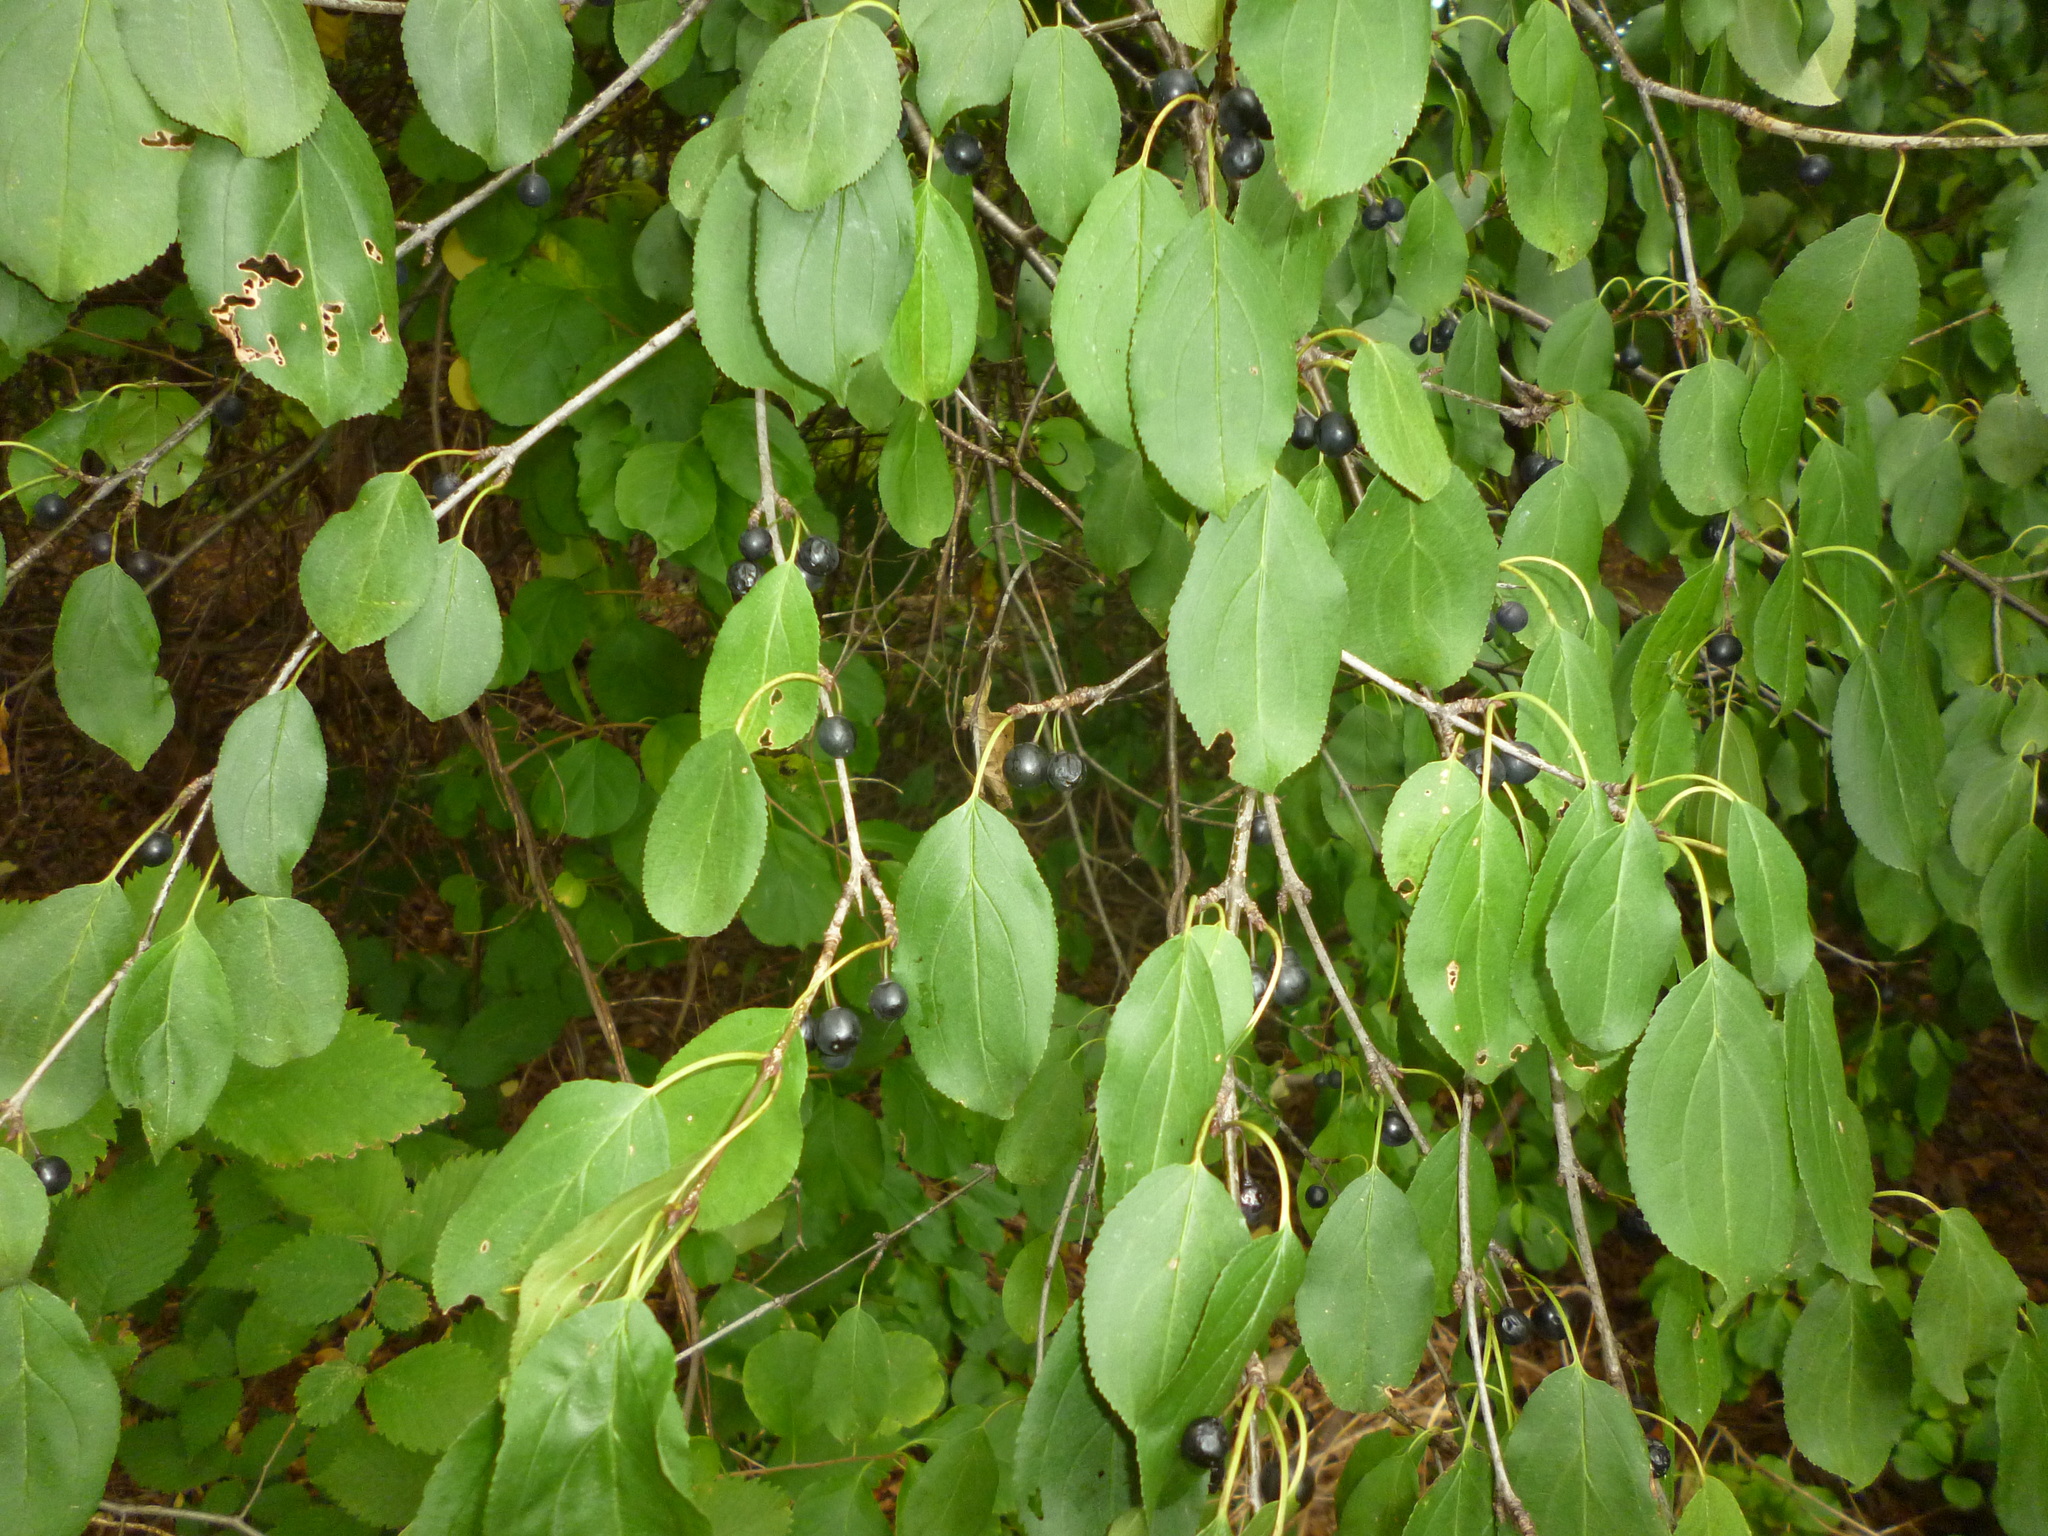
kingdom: Plantae
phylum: Tracheophyta
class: Magnoliopsida
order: Rosales
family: Rhamnaceae
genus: Rhamnus
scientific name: Rhamnus cathartica
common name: Common buckthorn
